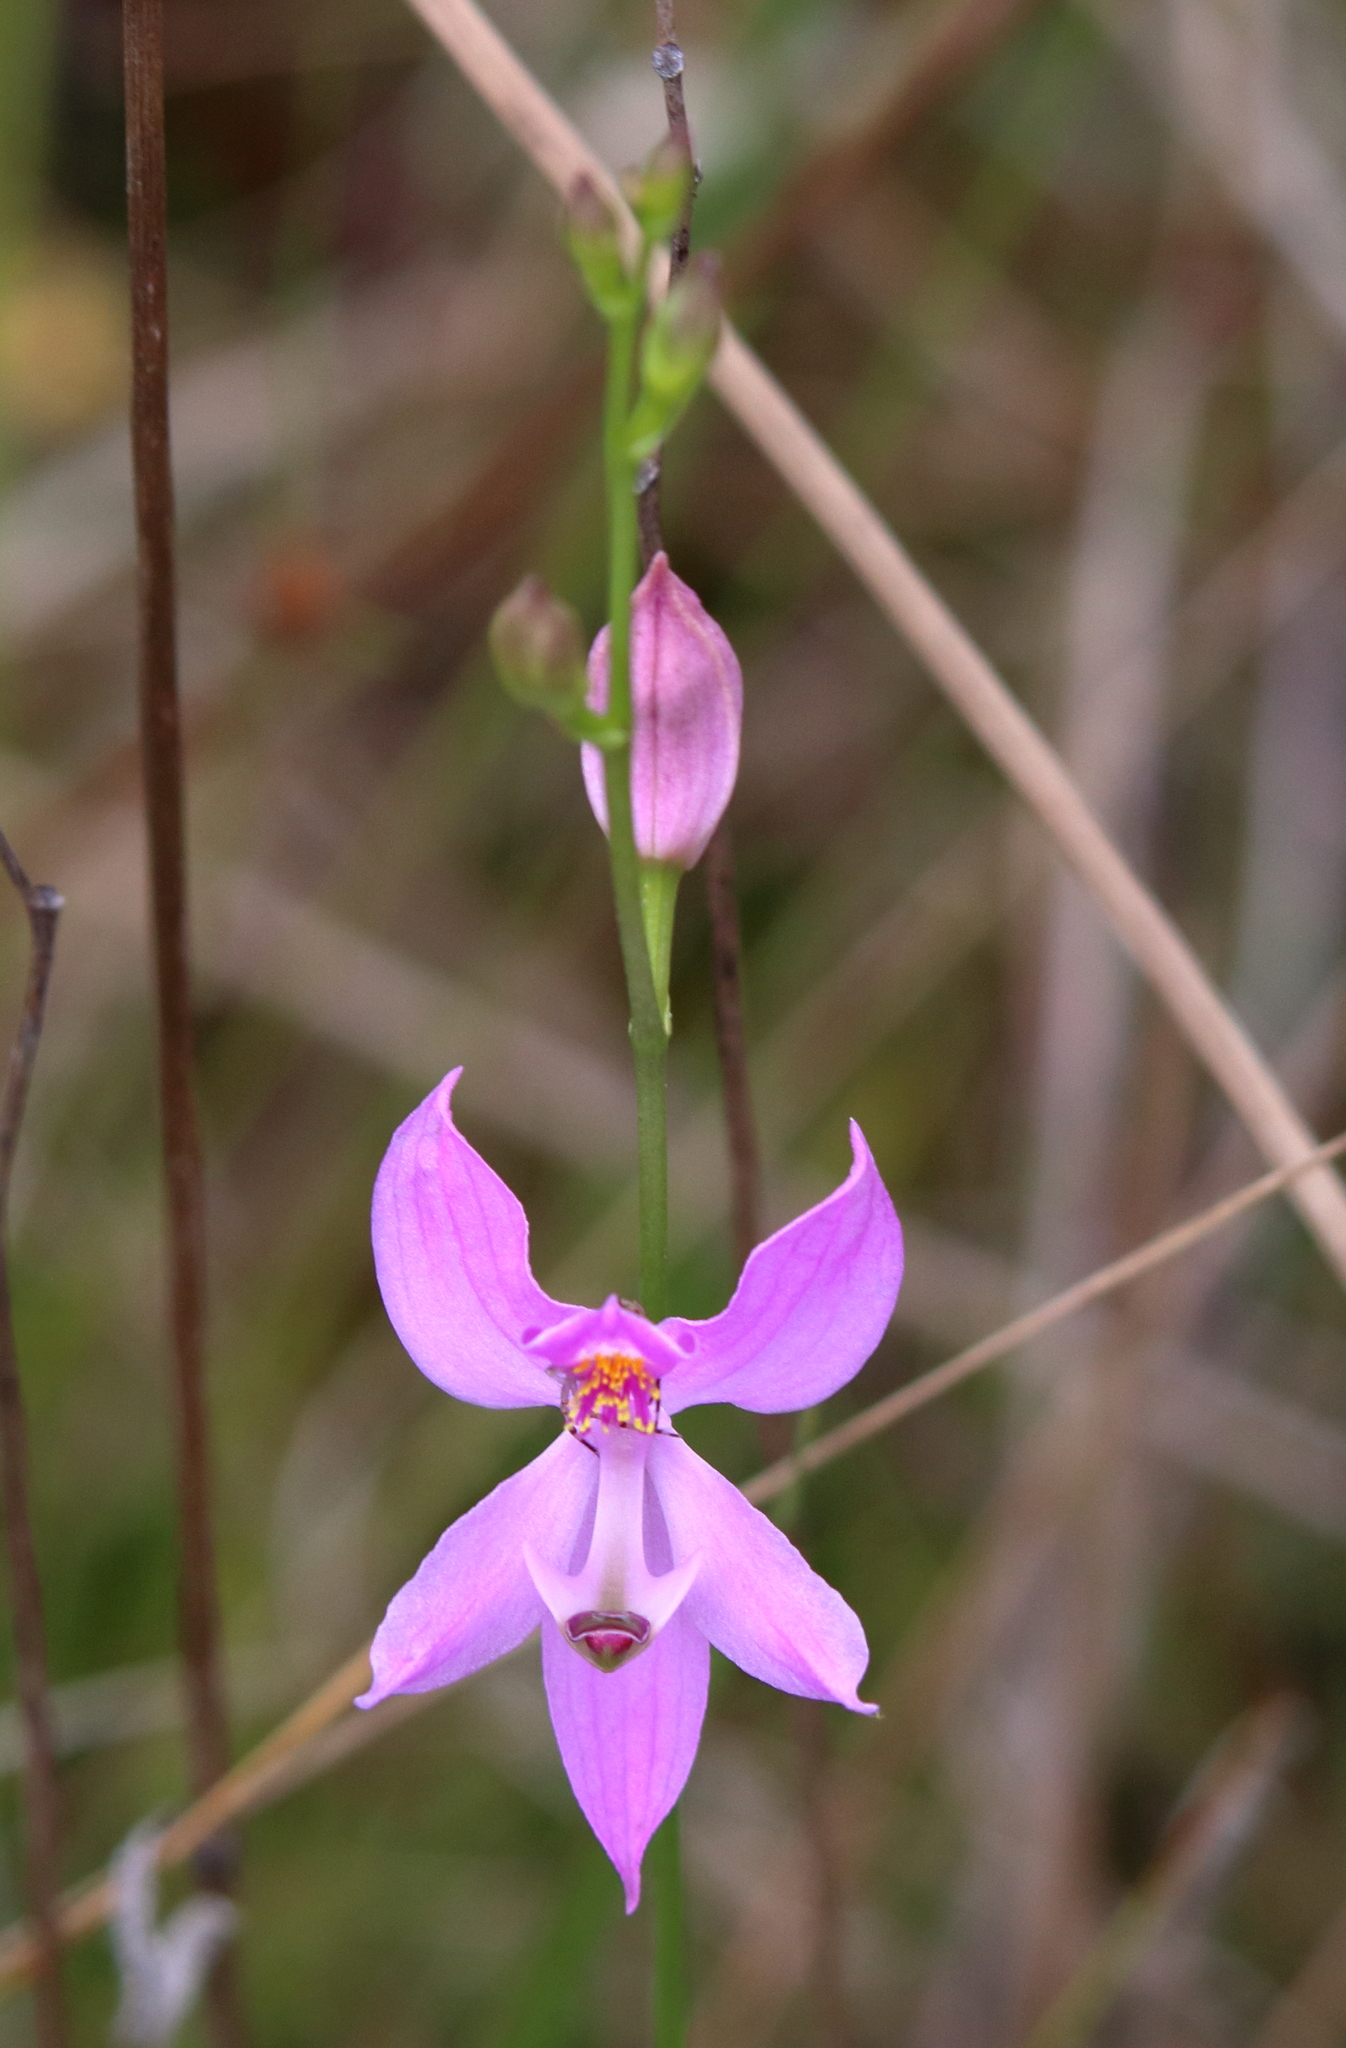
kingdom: Plantae
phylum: Tracheophyta
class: Liliopsida
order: Asparagales
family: Orchidaceae
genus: Calopogon
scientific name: Calopogon pallidus
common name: Pale grasspink
